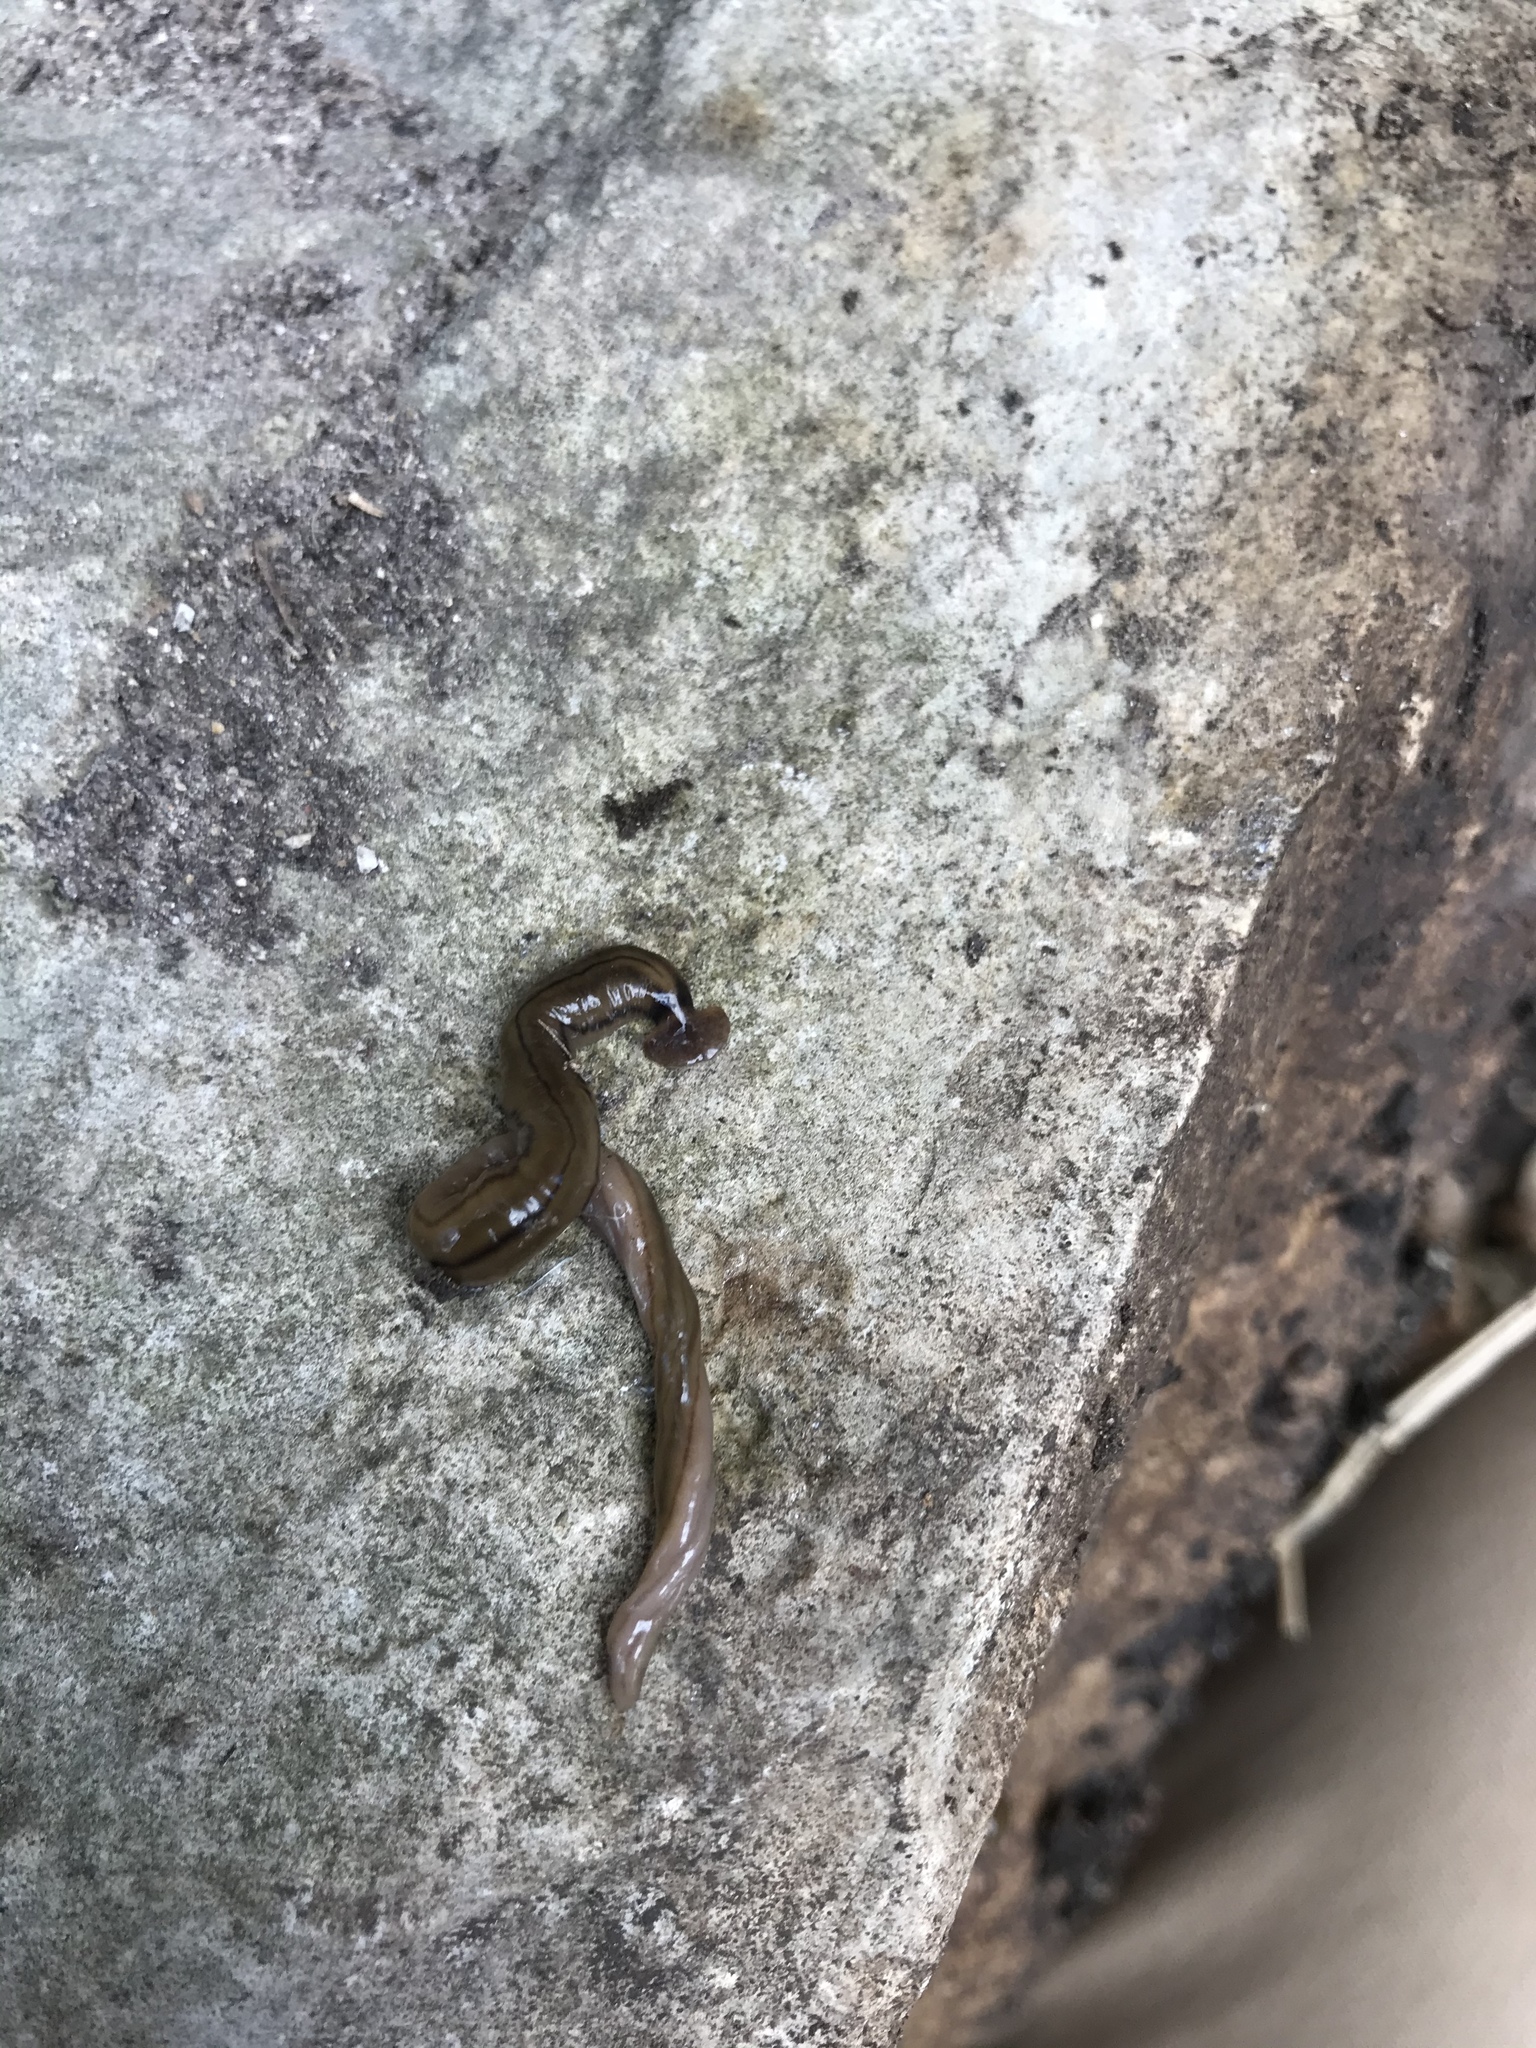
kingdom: Animalia
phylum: Platyhelminthes
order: Tricladida
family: Geoplanidae
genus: Bipalium
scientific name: Bipalium kewense
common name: Hammerhead flatworm
